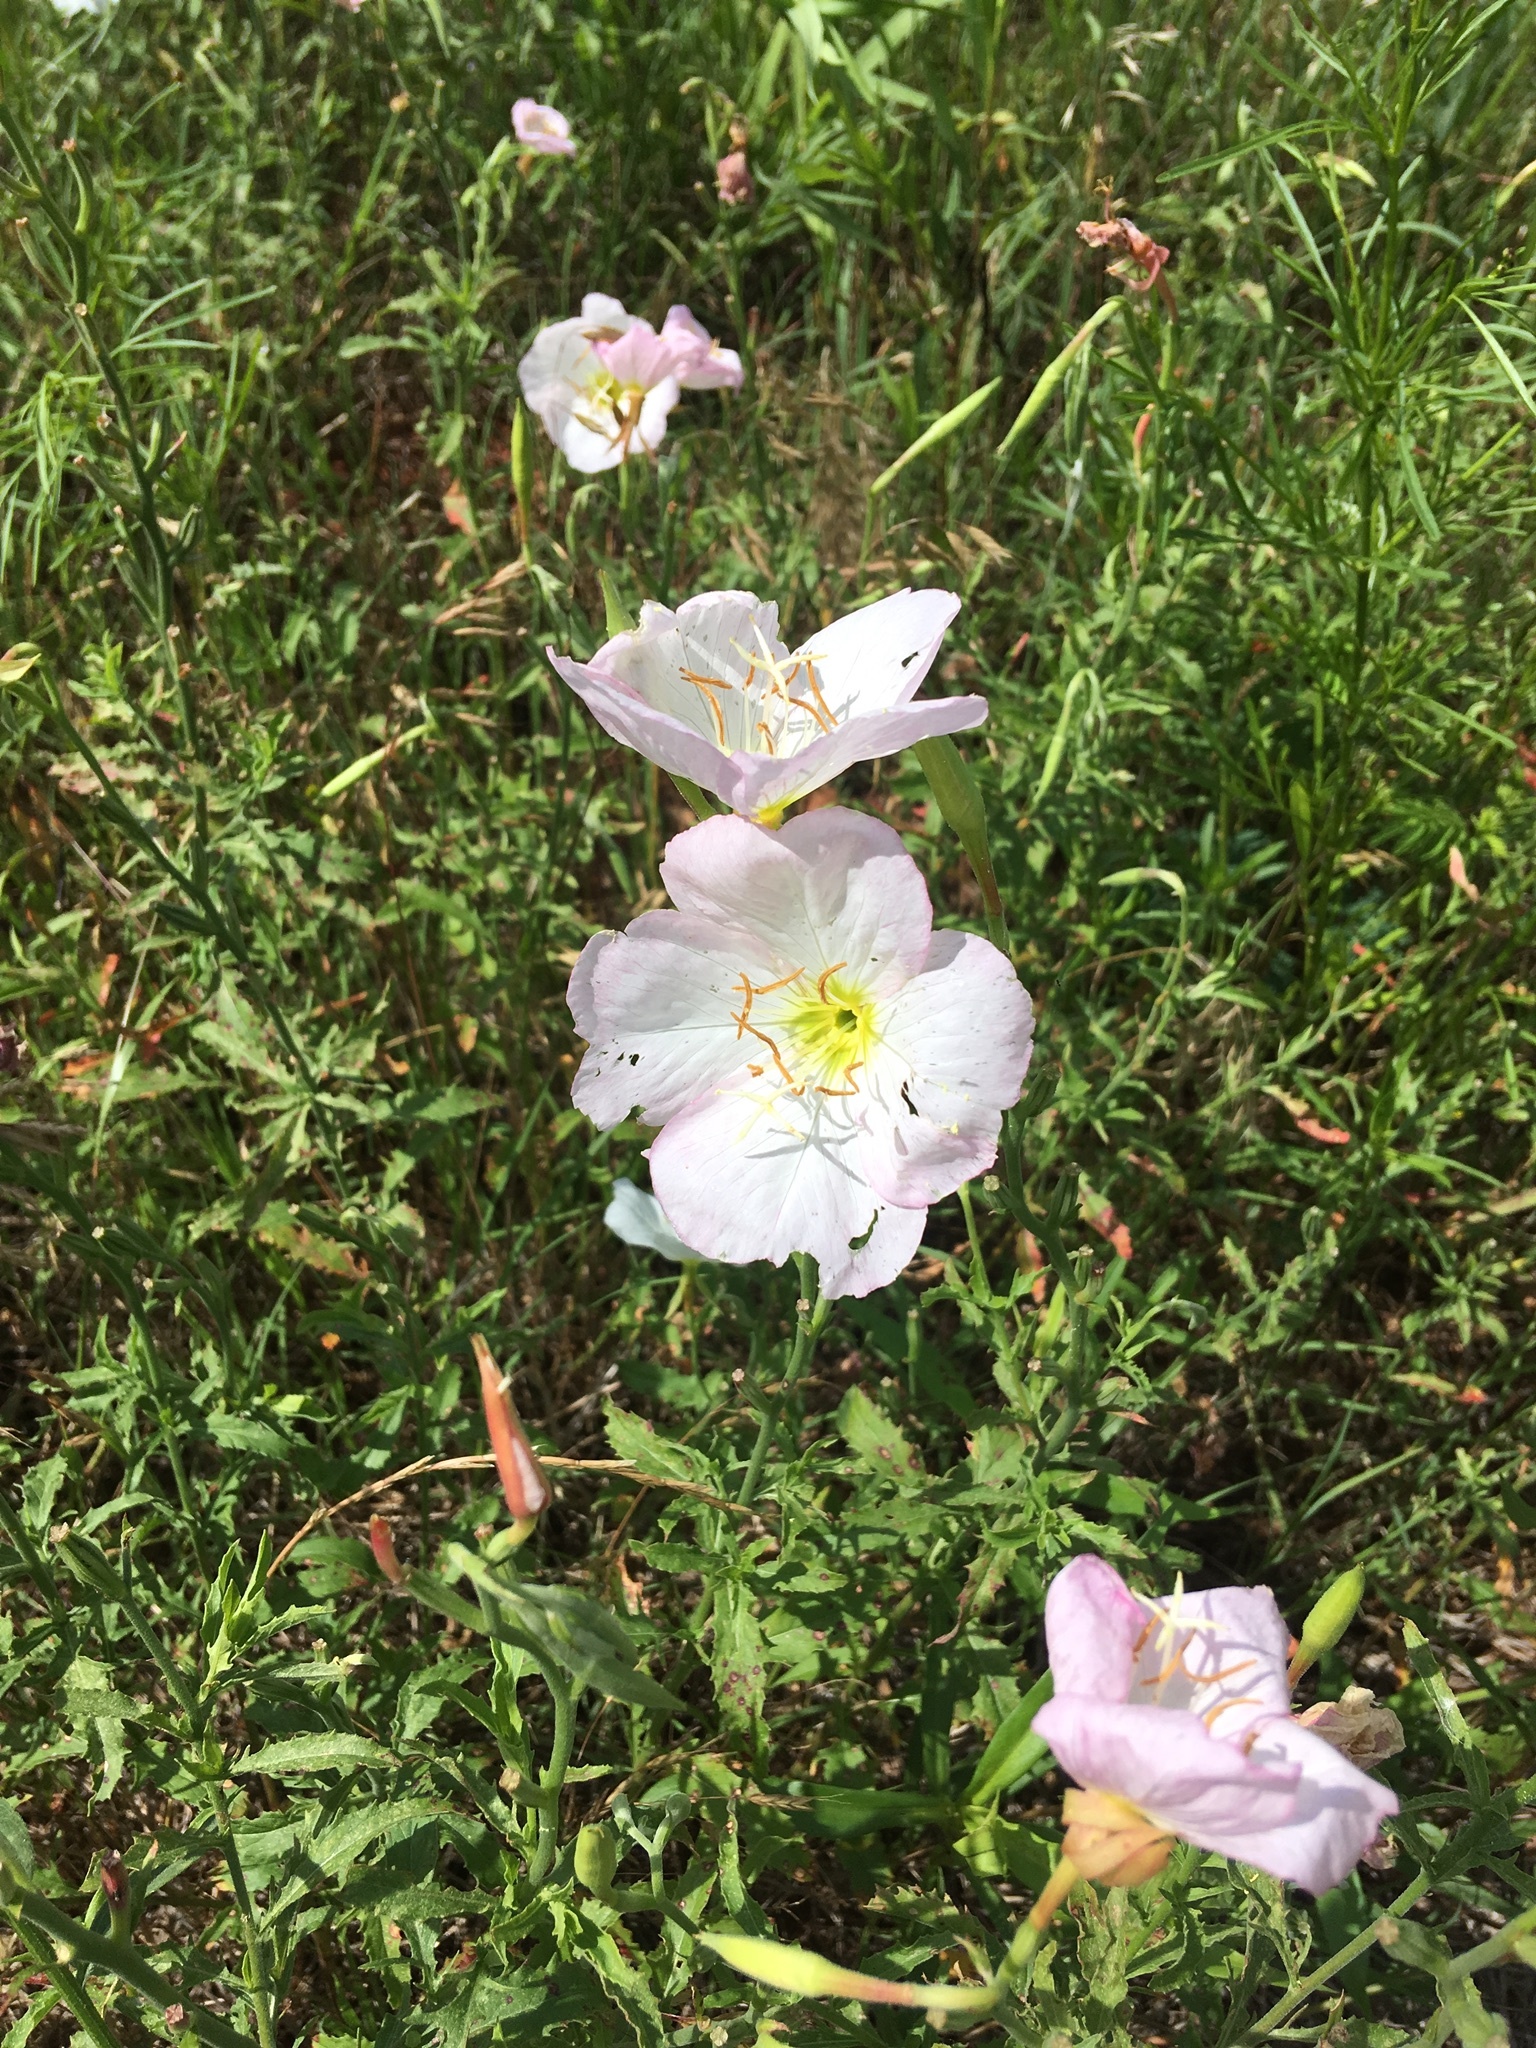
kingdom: Plantae
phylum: Tracheophyta
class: Magnoliopsida
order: Myrtales
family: Onagraceae
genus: Oenothera
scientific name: Oenothera speciosa
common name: White evening-primrose
